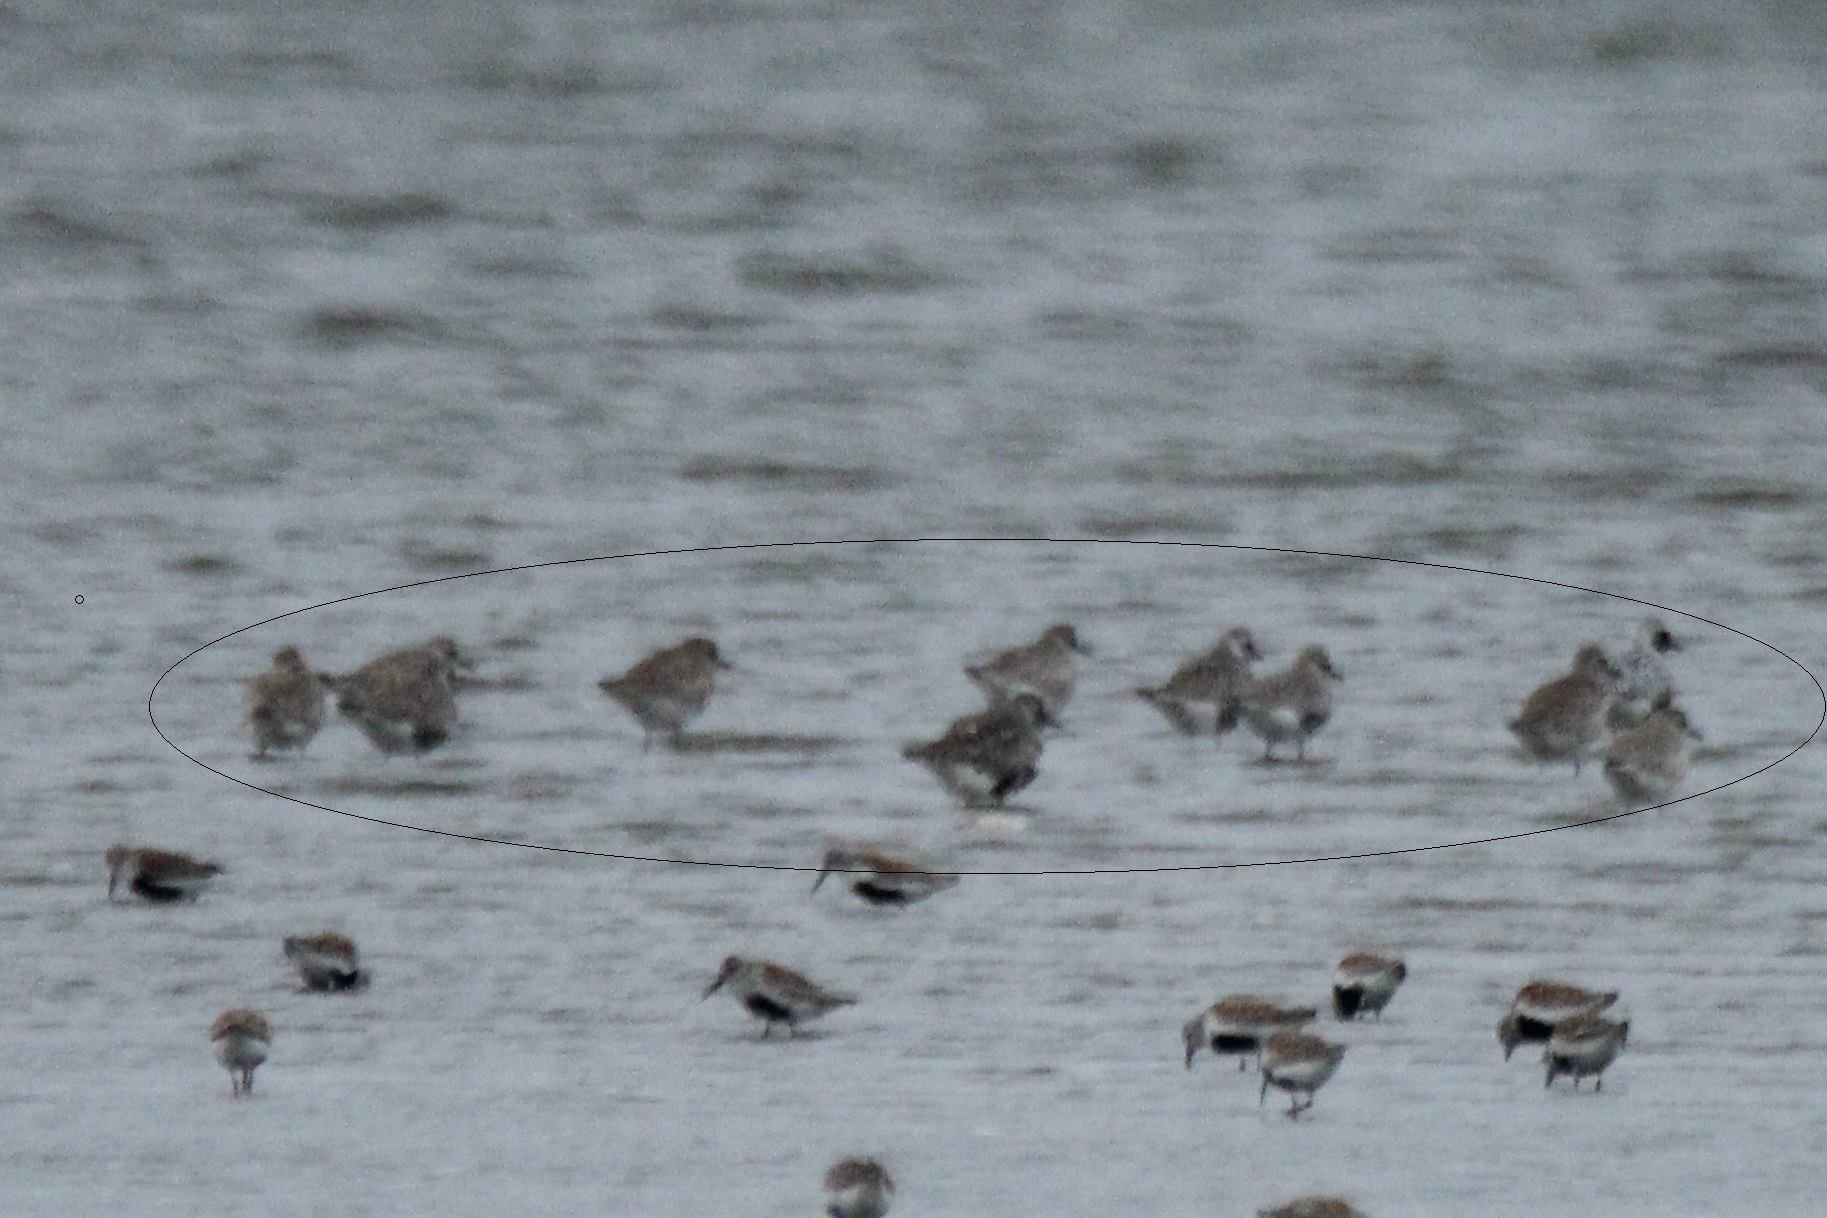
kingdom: Animalia
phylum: Chordata
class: Aves
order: Charadriiformes
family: Charadriidae
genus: Pluvialis
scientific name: Pluvialis squatarola
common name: Grey plover
